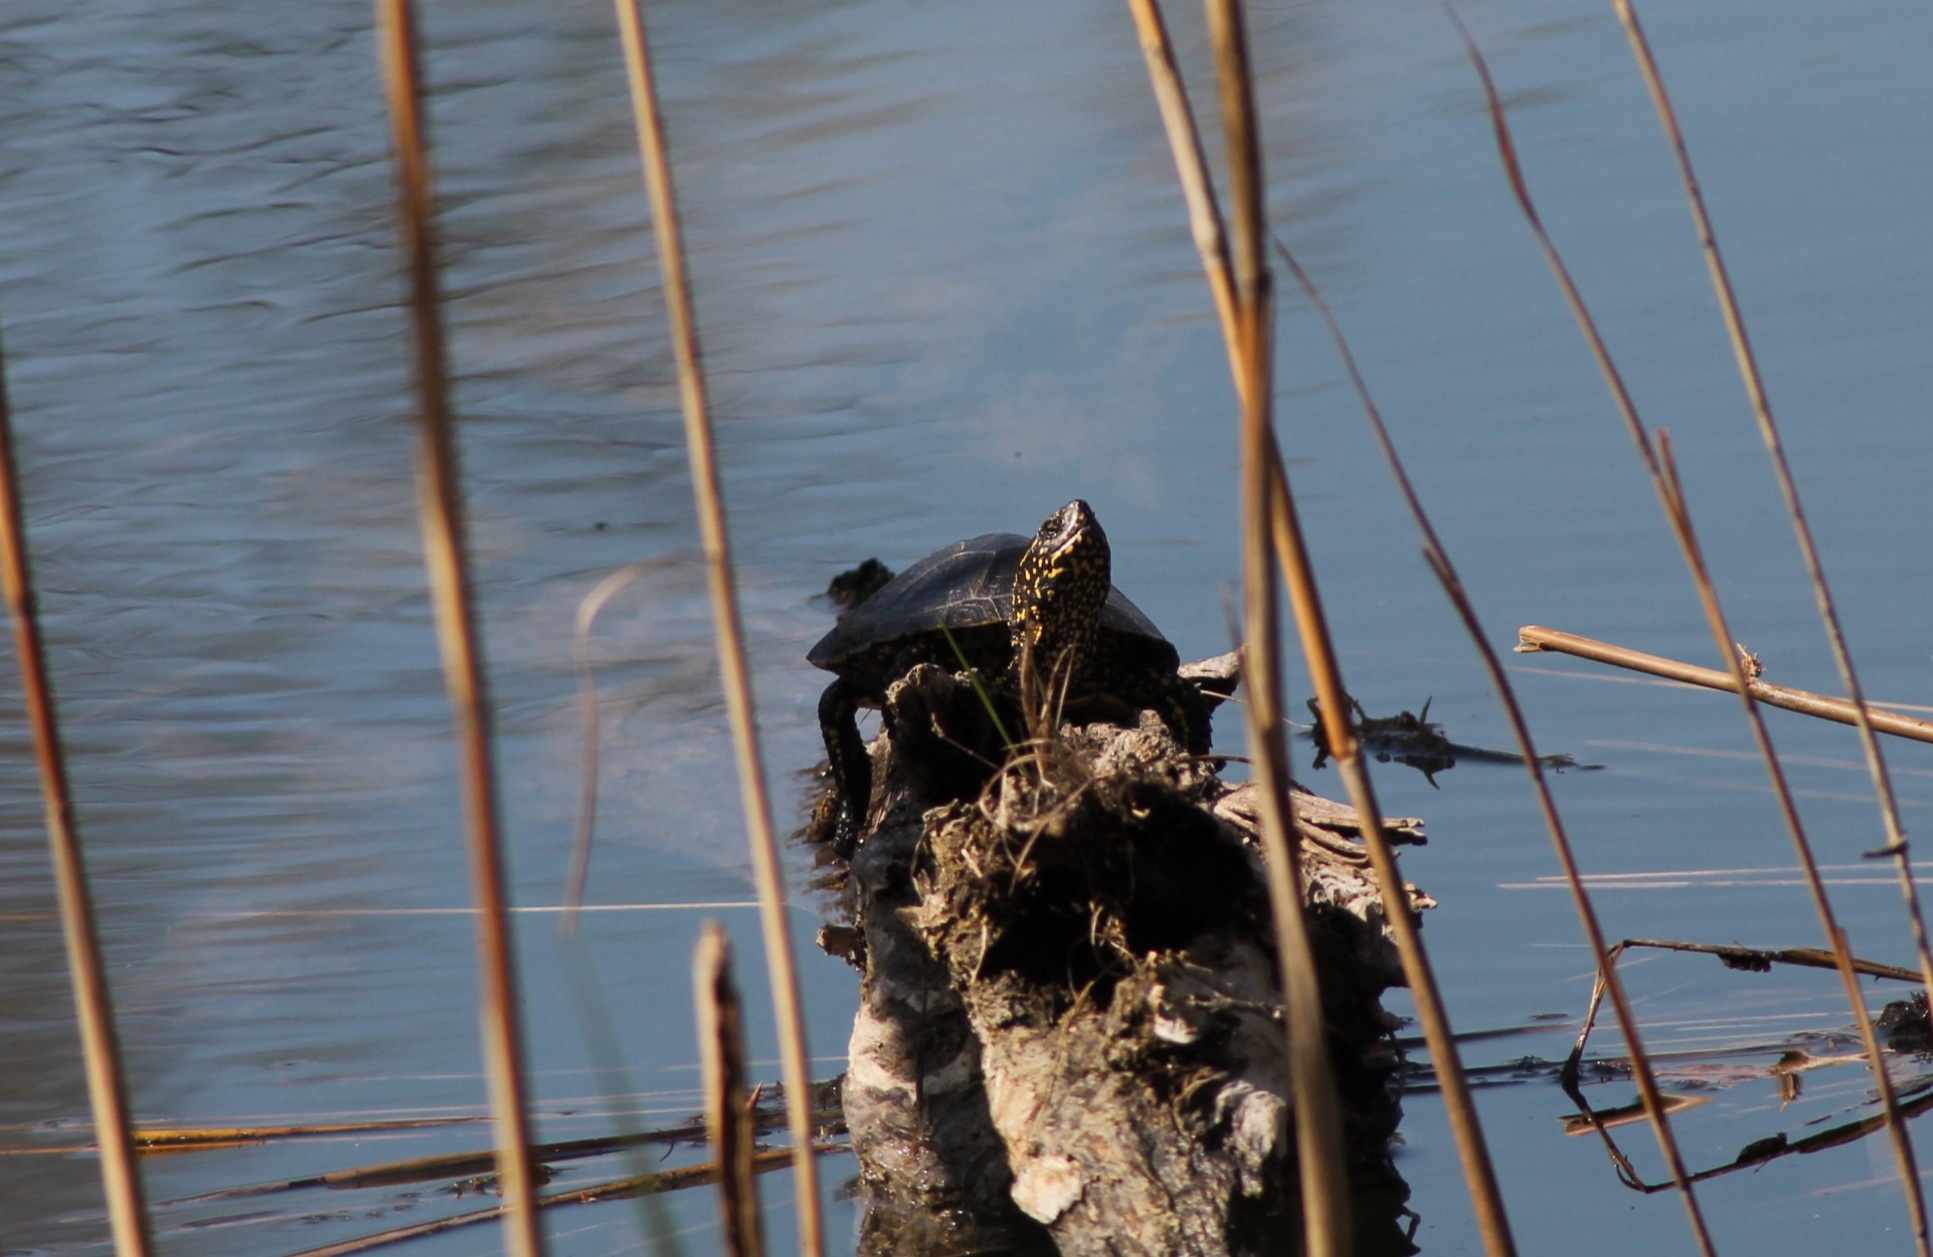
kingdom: Animalia
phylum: Chordata
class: Testudines
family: Emydidae
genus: Emys
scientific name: Emys orbicularis
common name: European pond turtle
